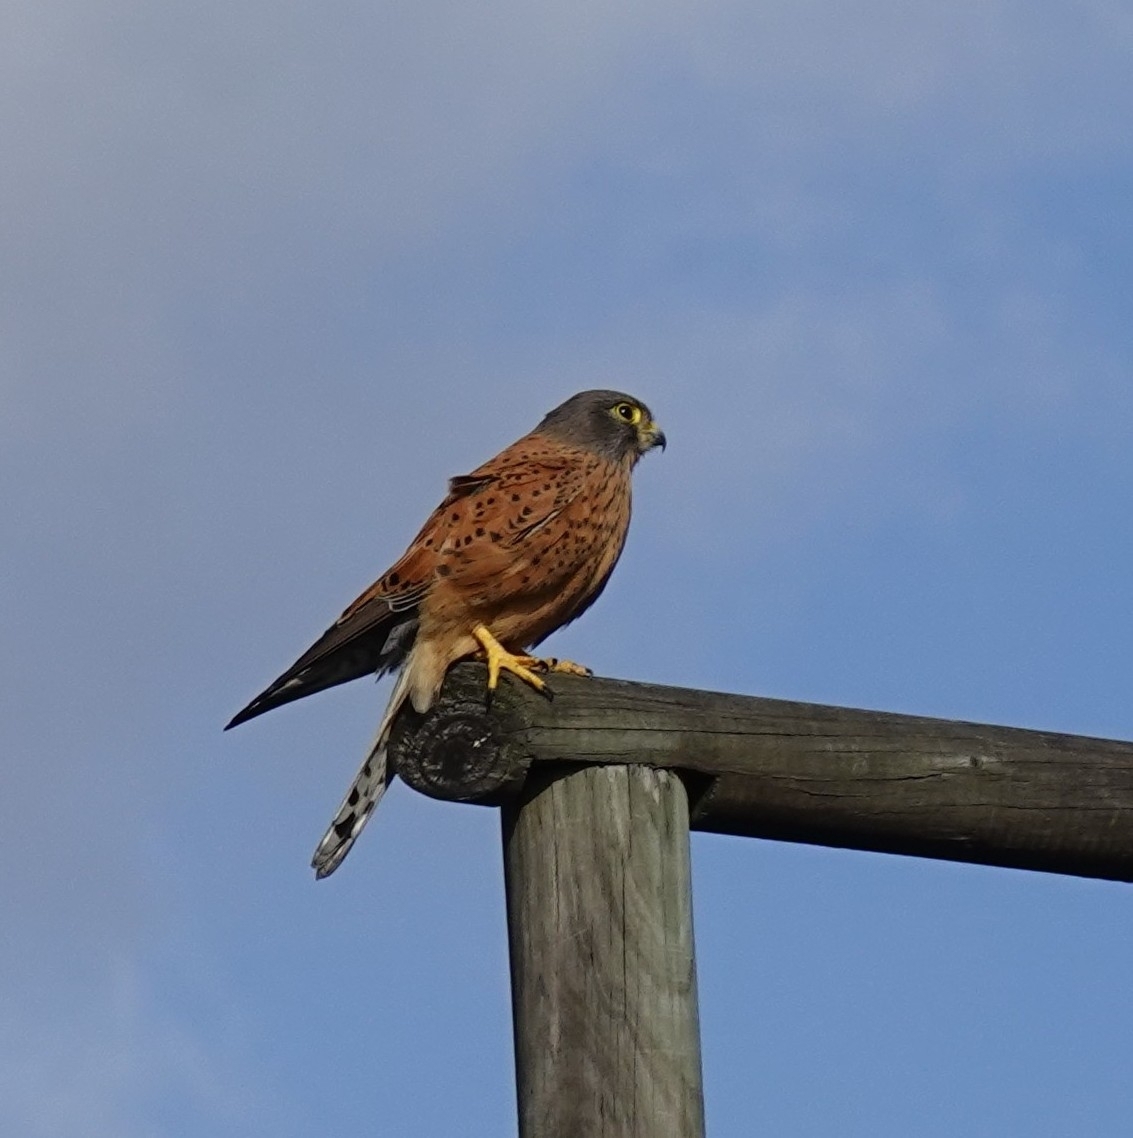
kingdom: Animalia
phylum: Chordata
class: Aves
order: Falconiformes
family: Falconidae
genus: Falco
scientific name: Falco rupicolus
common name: Rock kestrel
